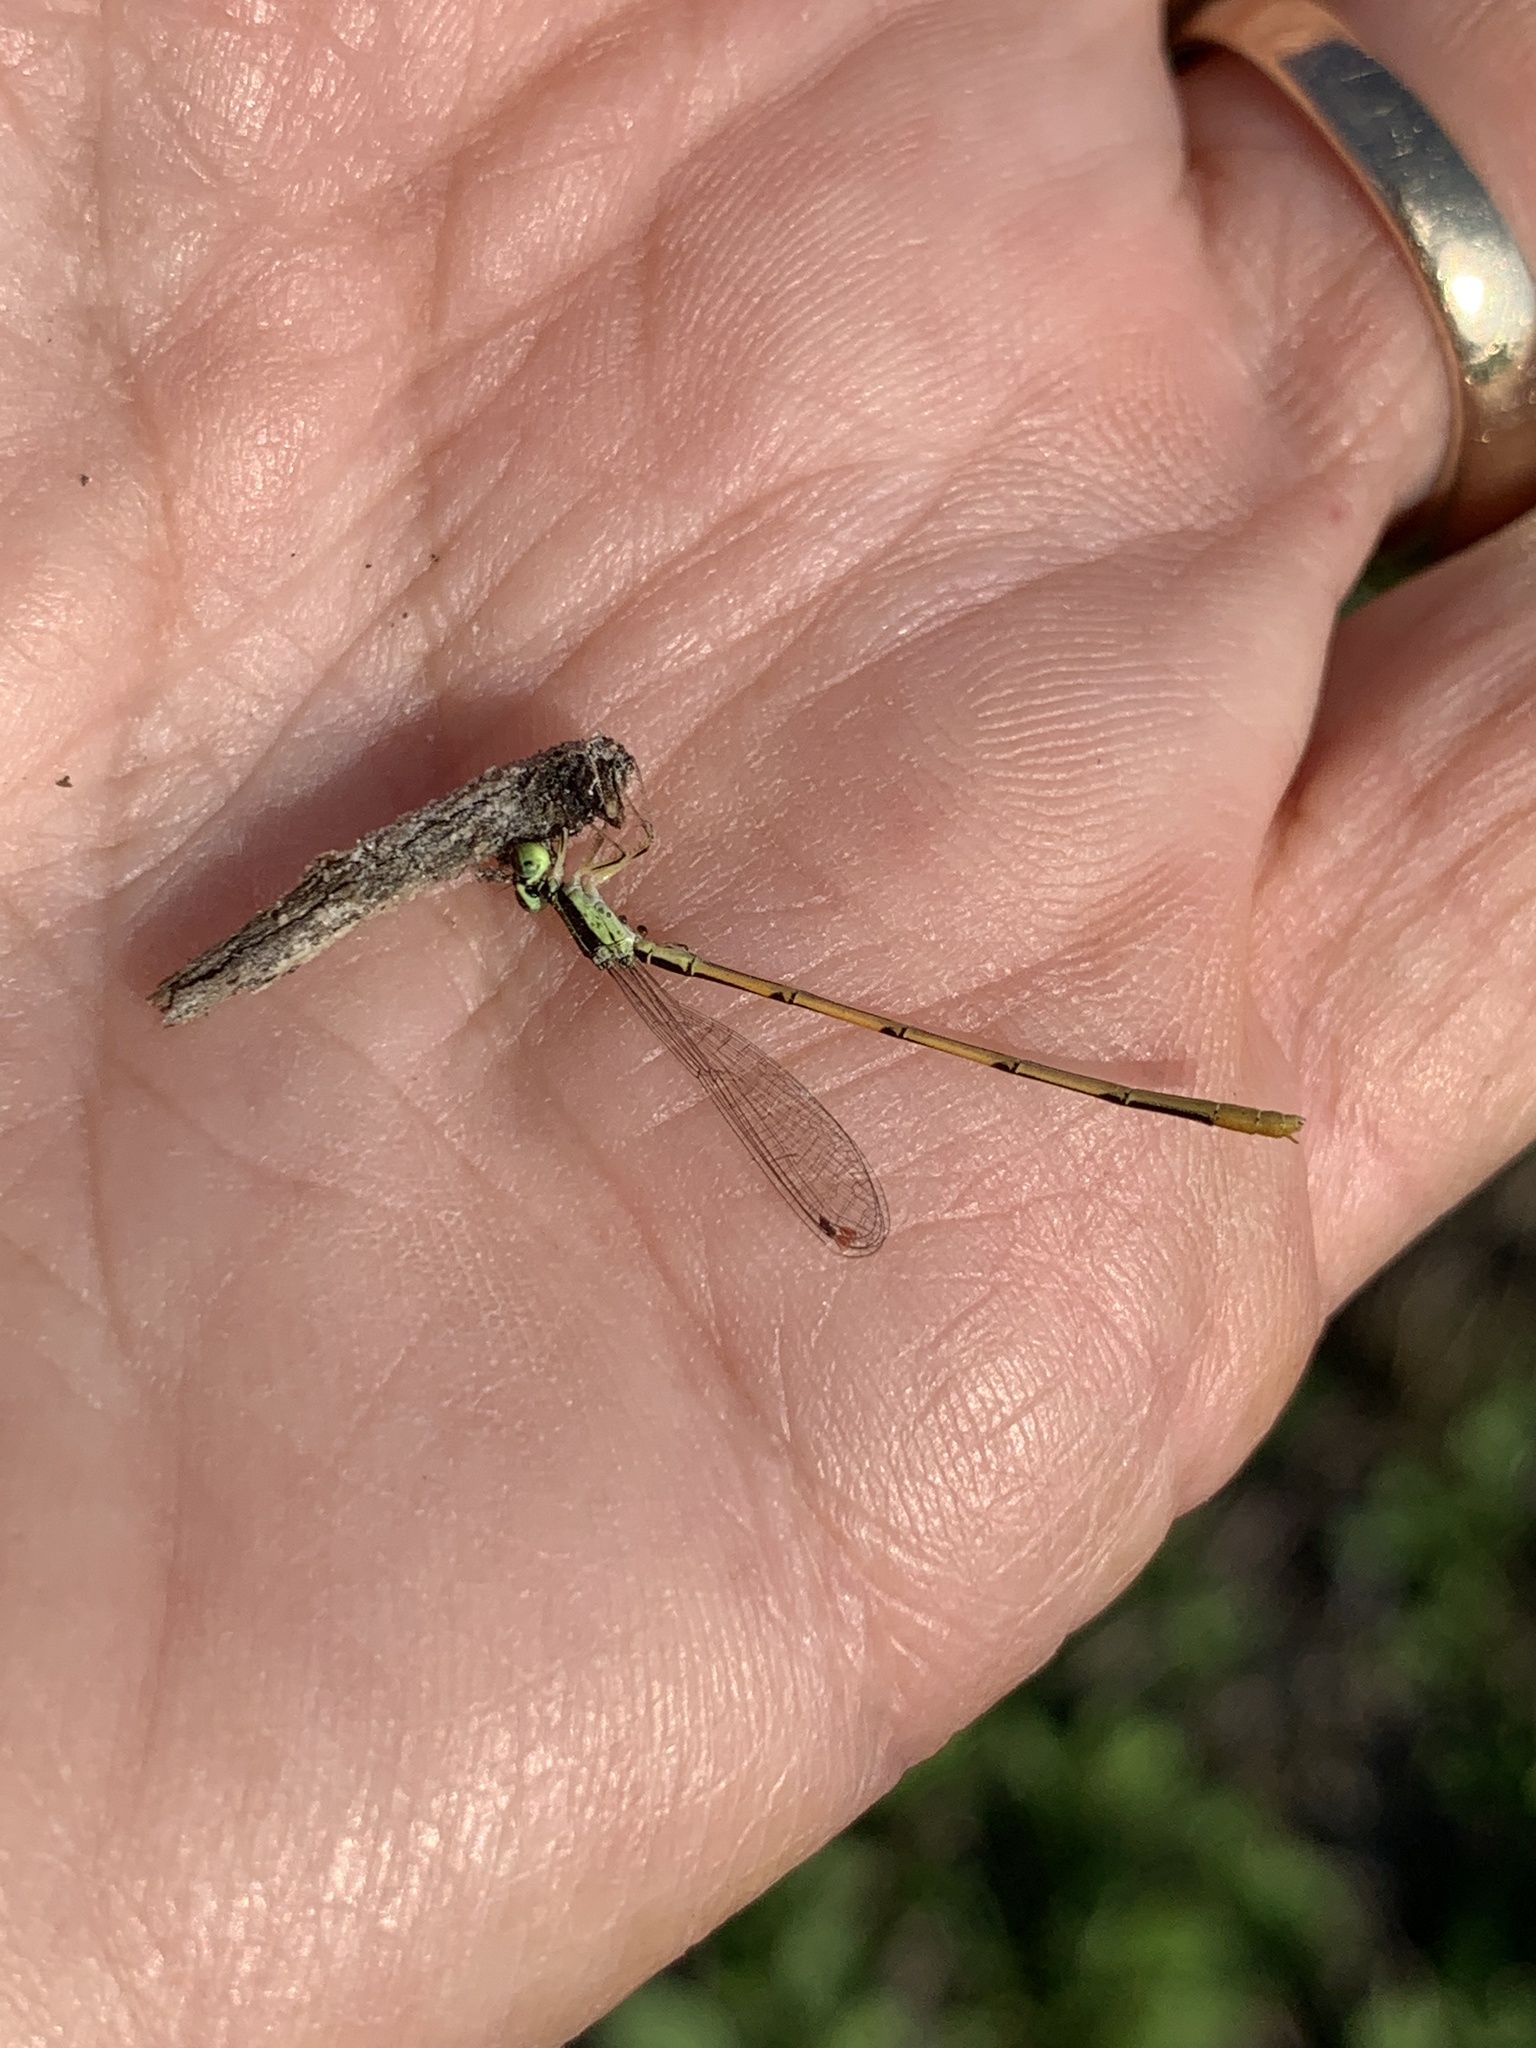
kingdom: Animalia
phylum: Arthropoda
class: Insecta
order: Odonata
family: Coenagrionidae
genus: Ischnura
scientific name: Ischnura hastata
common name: Citrine forktail
